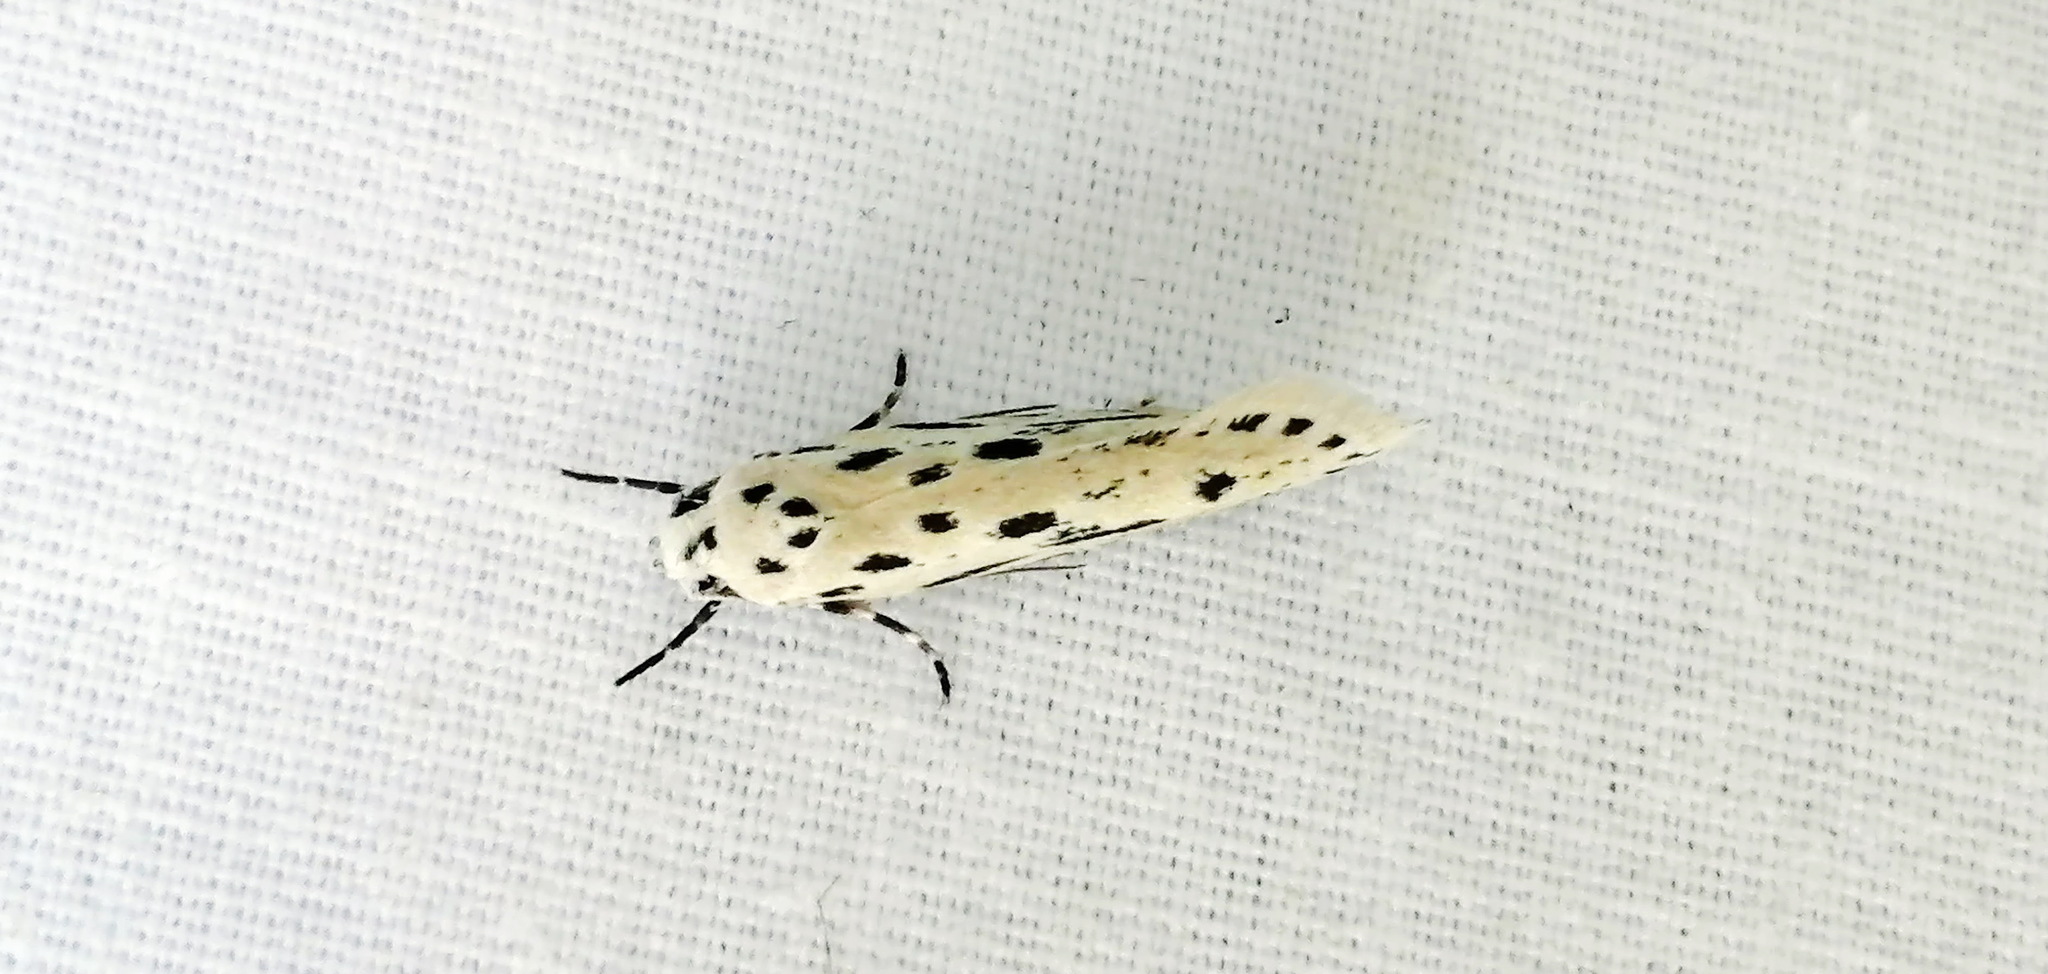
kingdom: Animalia
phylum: Arthropoda
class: Insecta
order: Lepidoptera
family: Ethmiidae
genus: Ethmia
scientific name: Ethmia longimaculella
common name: Streaked ethmia moth
